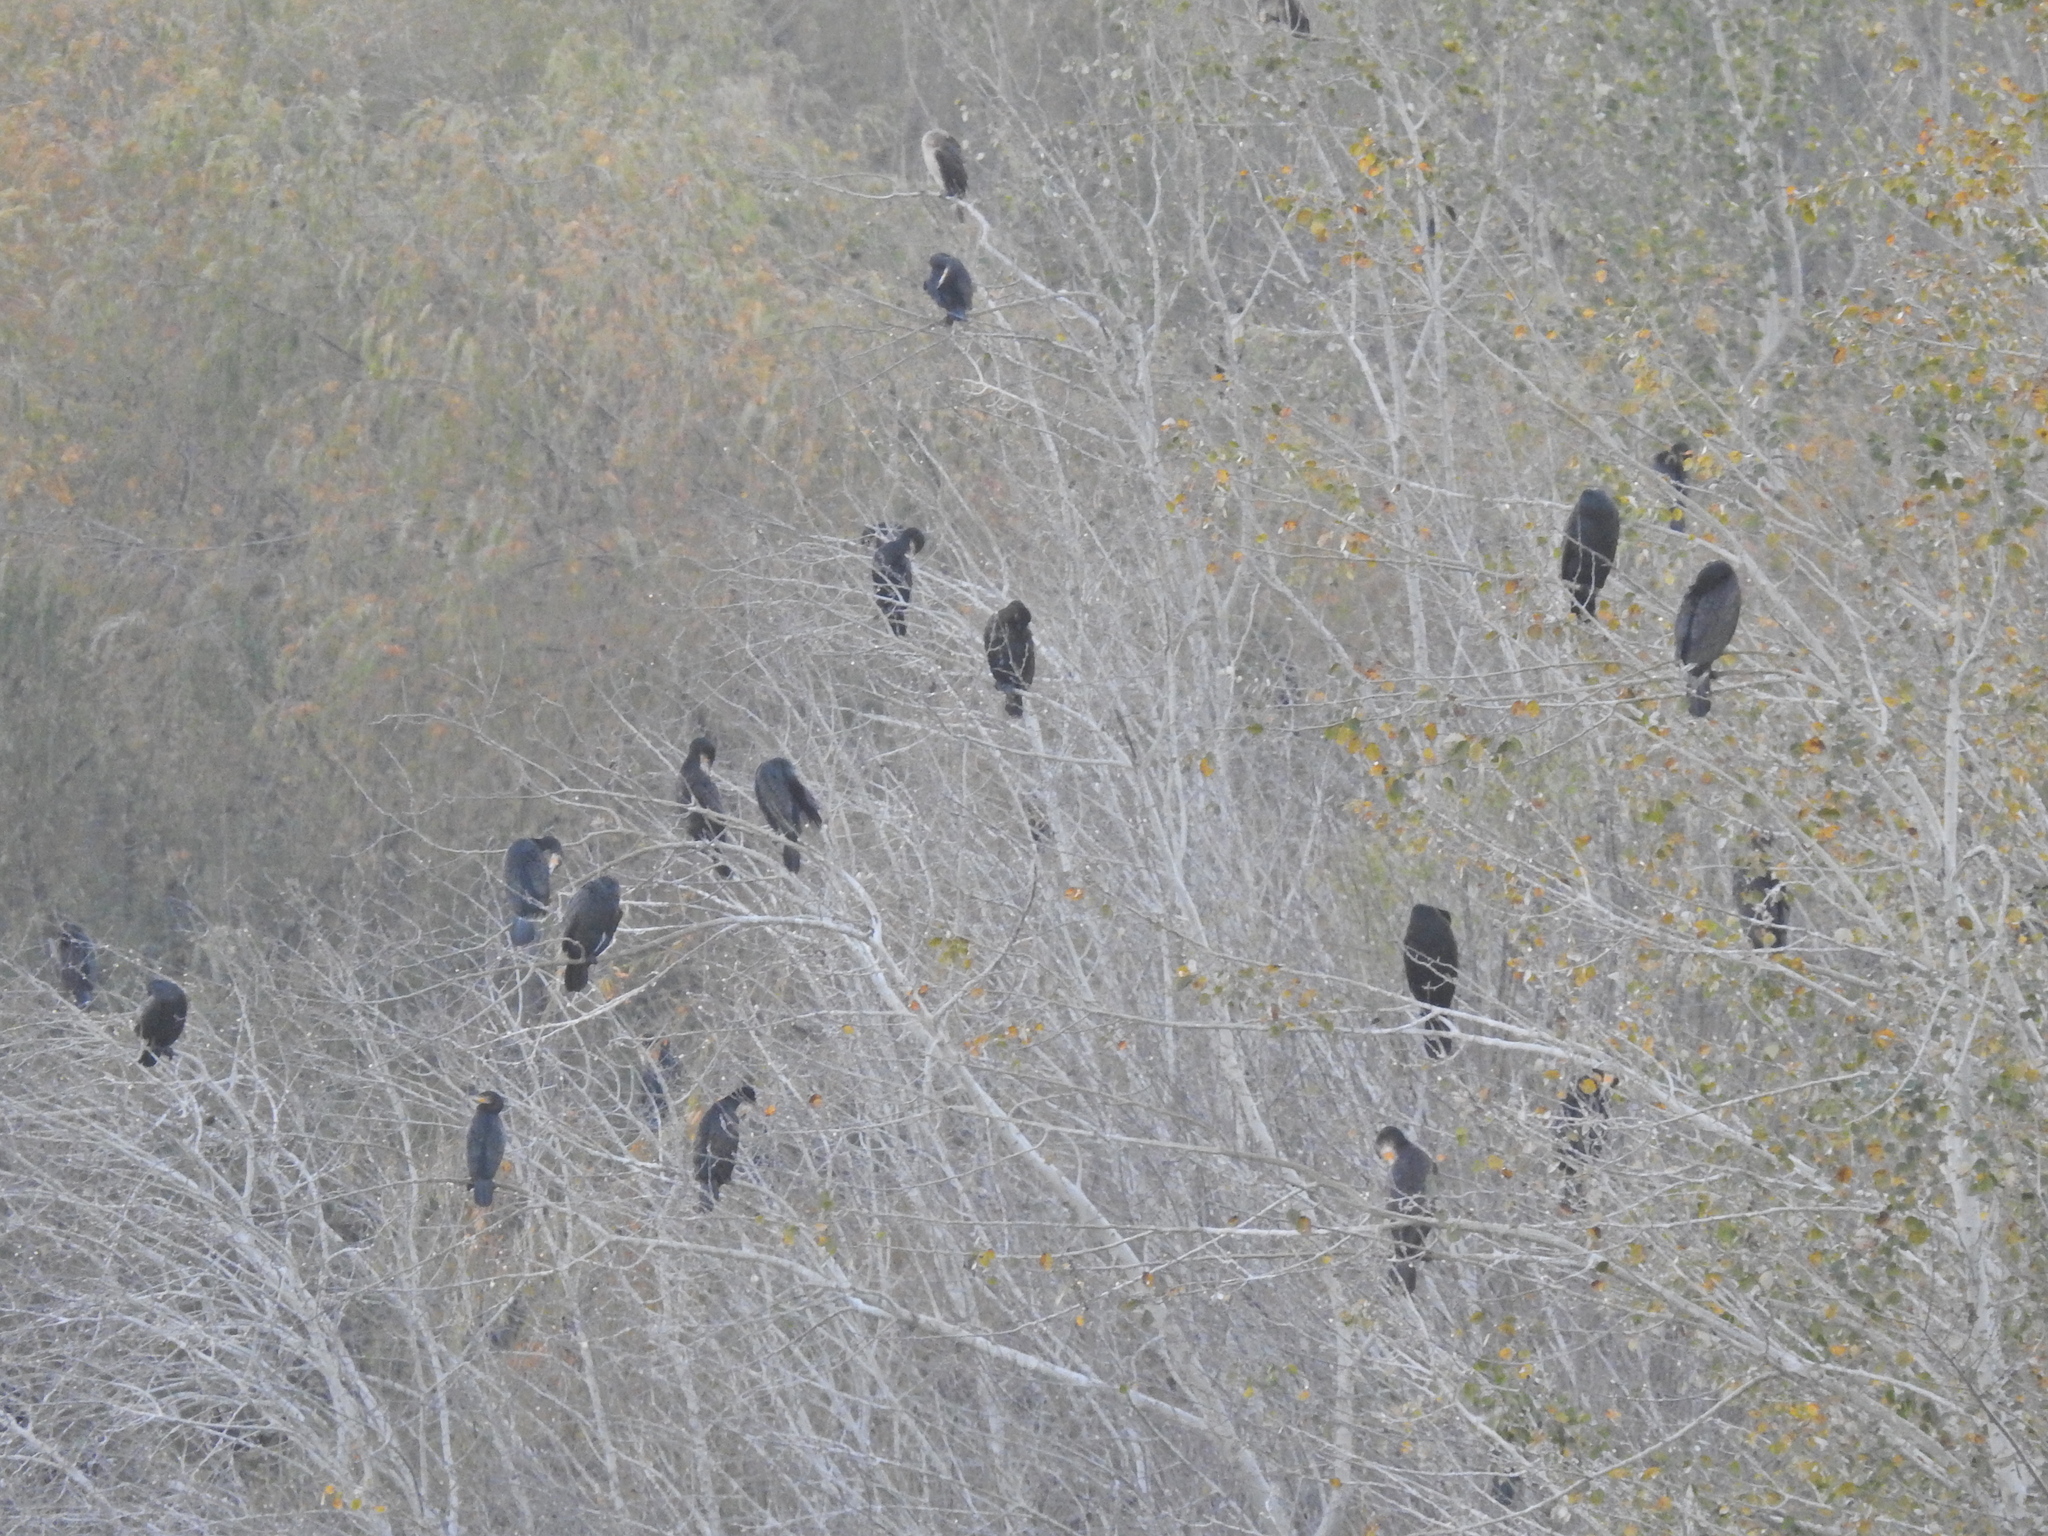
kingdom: Animalia
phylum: Chordata
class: Aves
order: Suliformes
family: Phalacrocoracidae
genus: Phalacrocorax
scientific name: Phalacrocorax carbo
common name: Great cormorant
